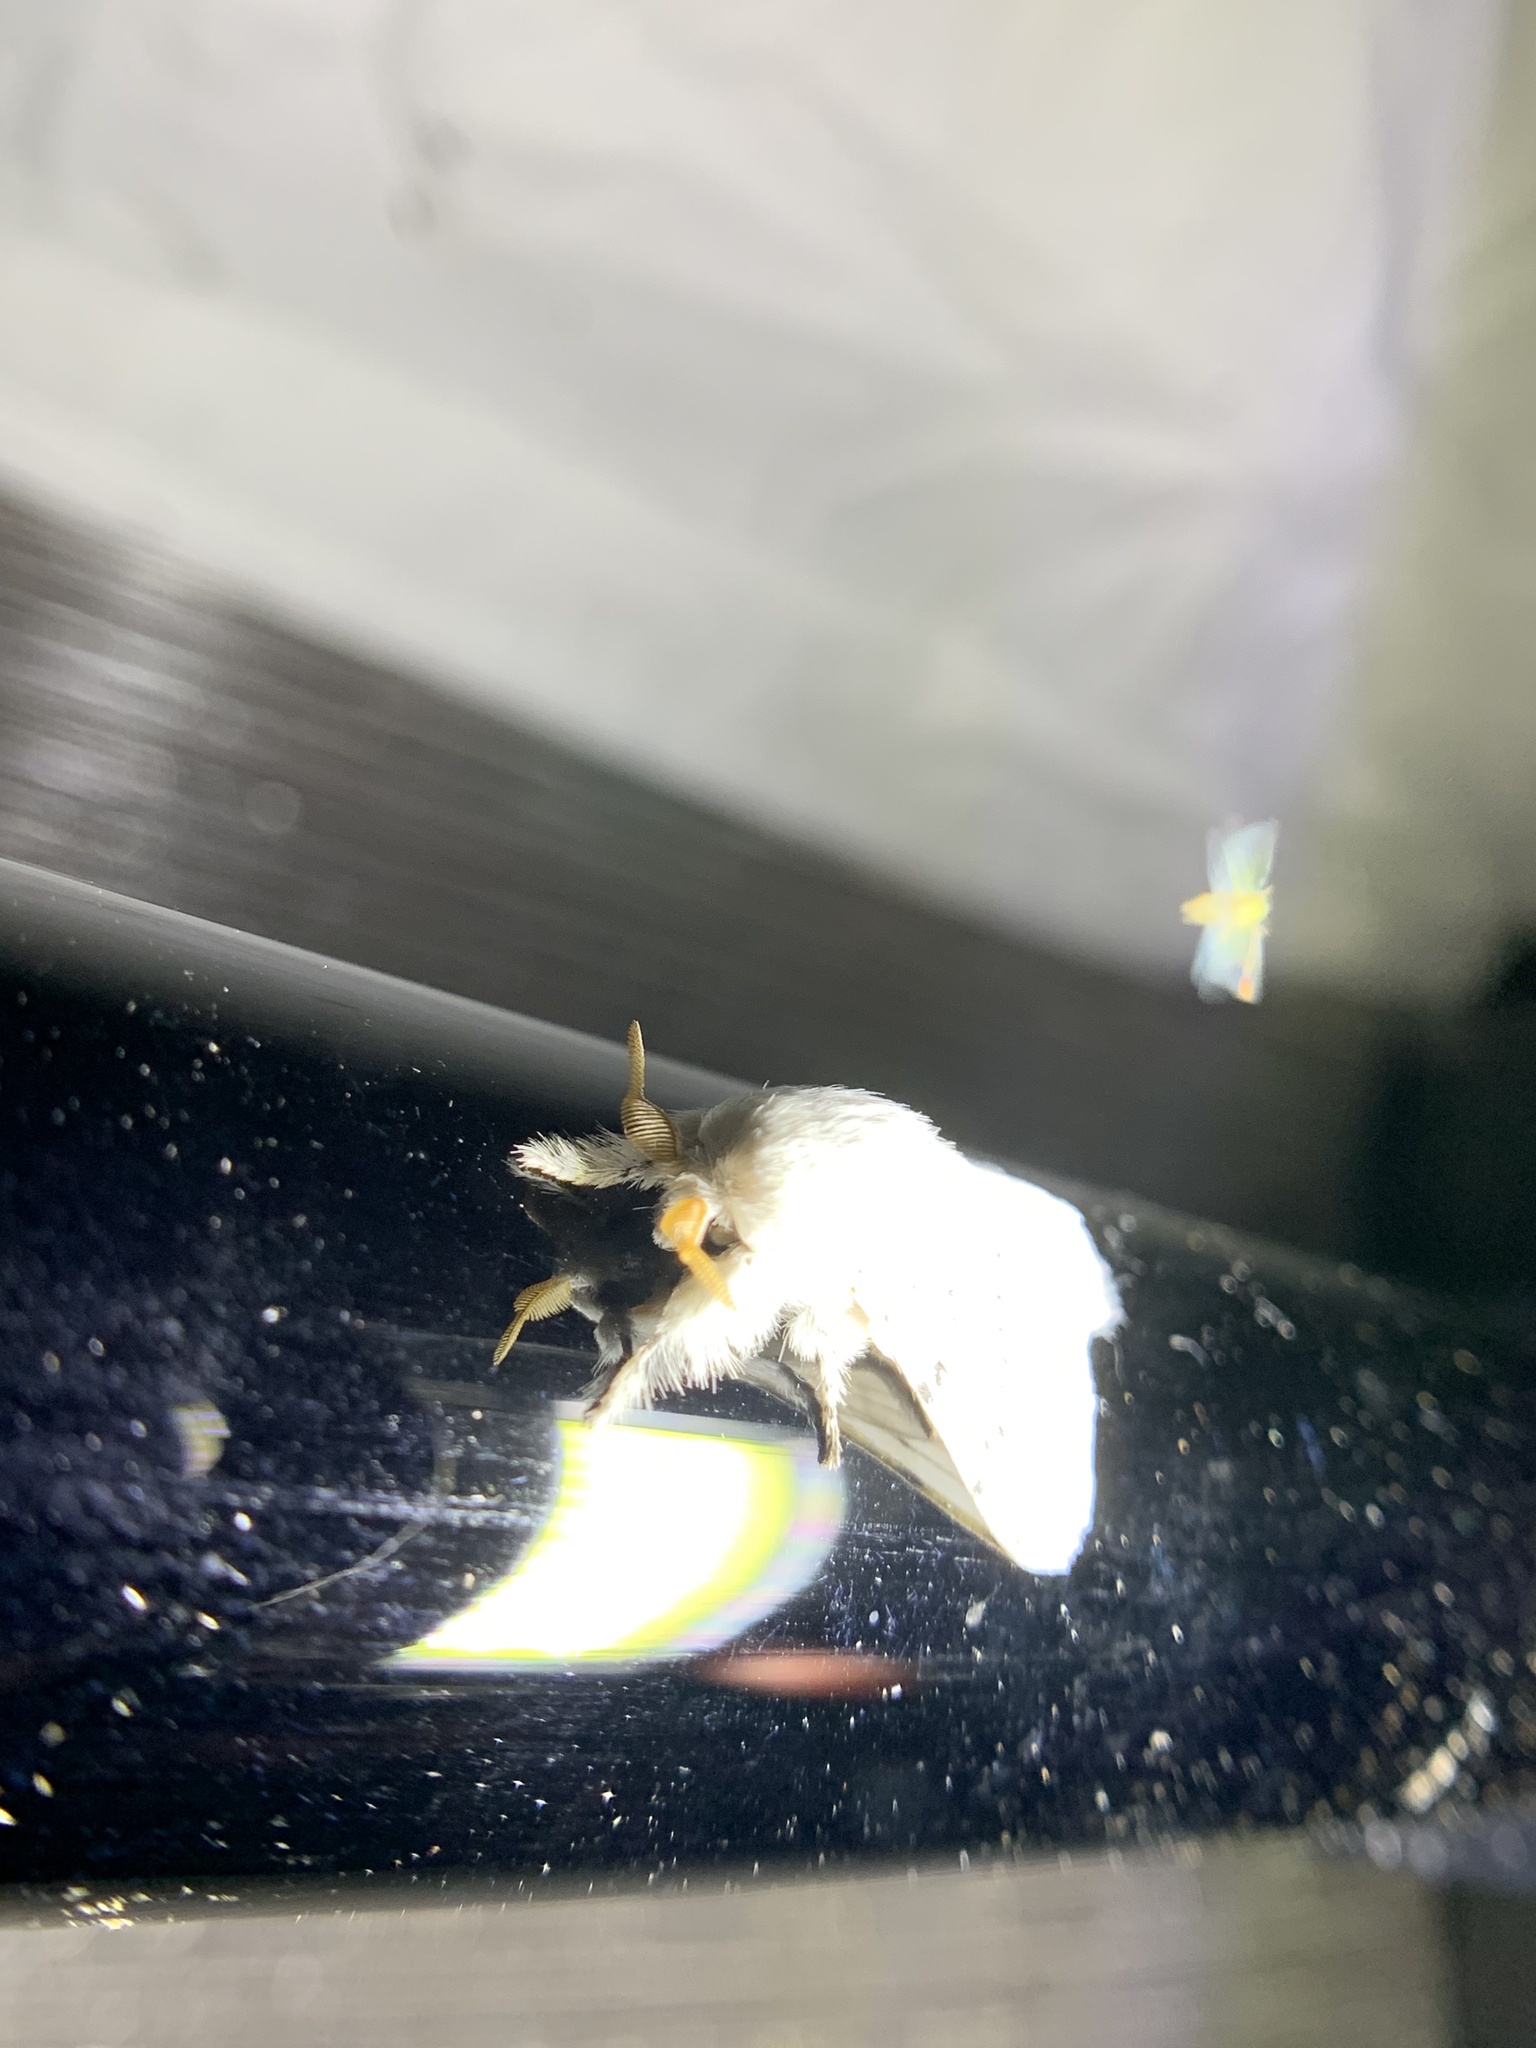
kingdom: Animalia
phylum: Arthropoda
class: Insecta
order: Lepidoptera
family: Lasiocampidae
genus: Artace
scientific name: Artace cribrarius
